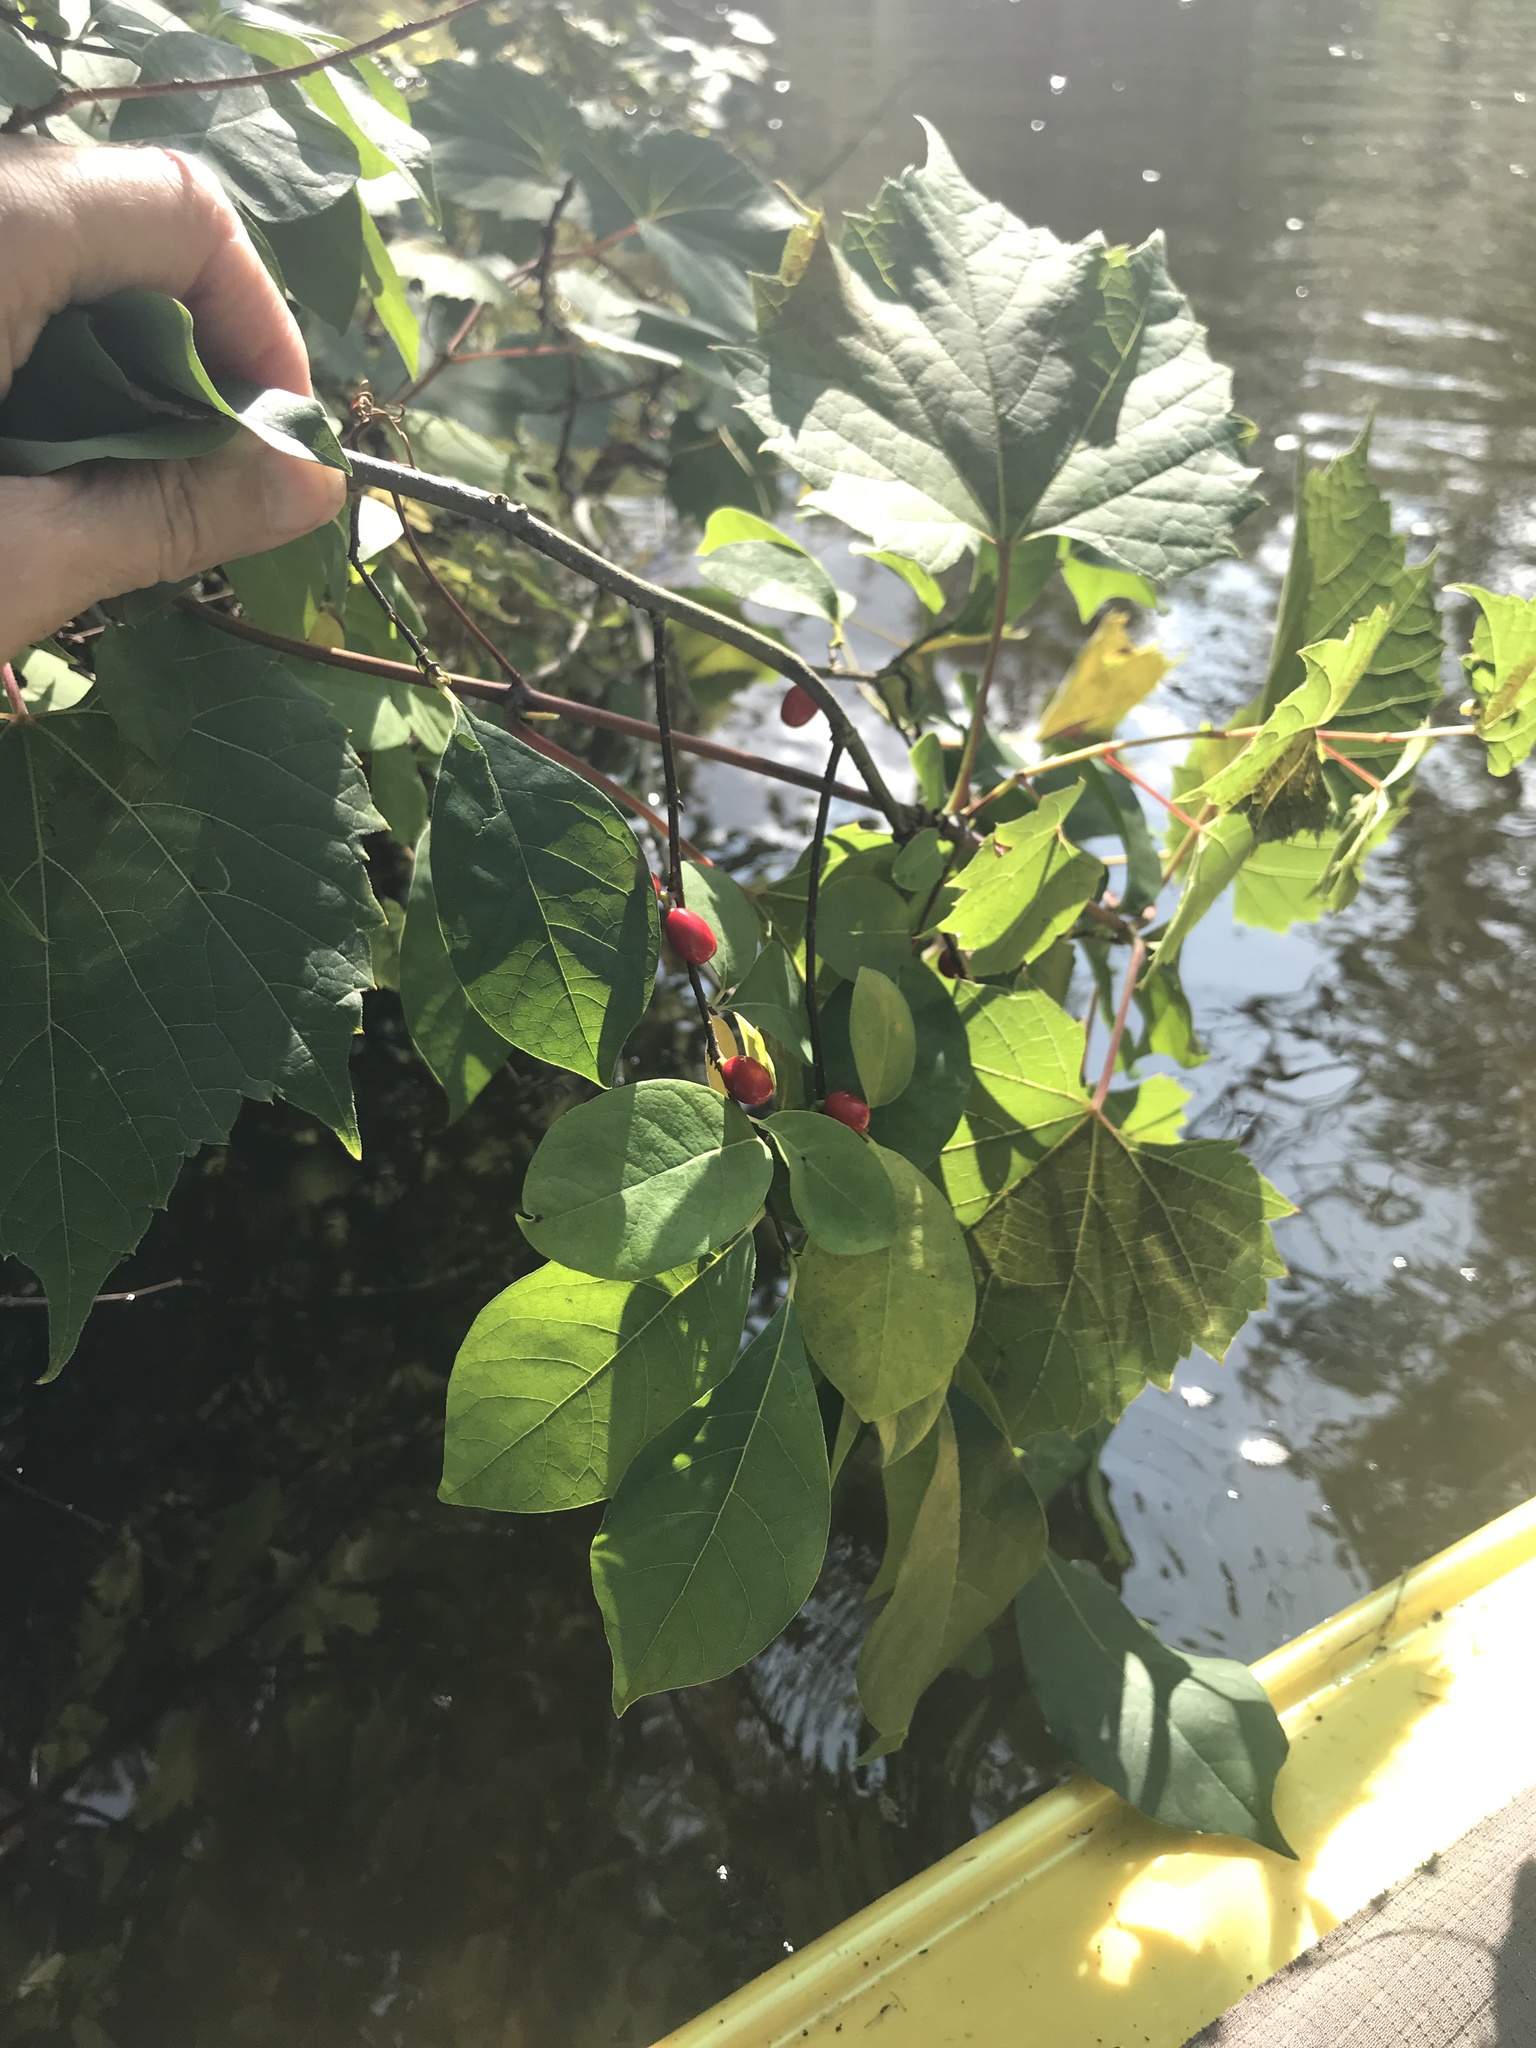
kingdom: Plantae
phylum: Tracheophyta
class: Magnoliopsida
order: Laurales
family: Lauraceae
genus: Lindera
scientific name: Lindera benzoin
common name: Spicebush
